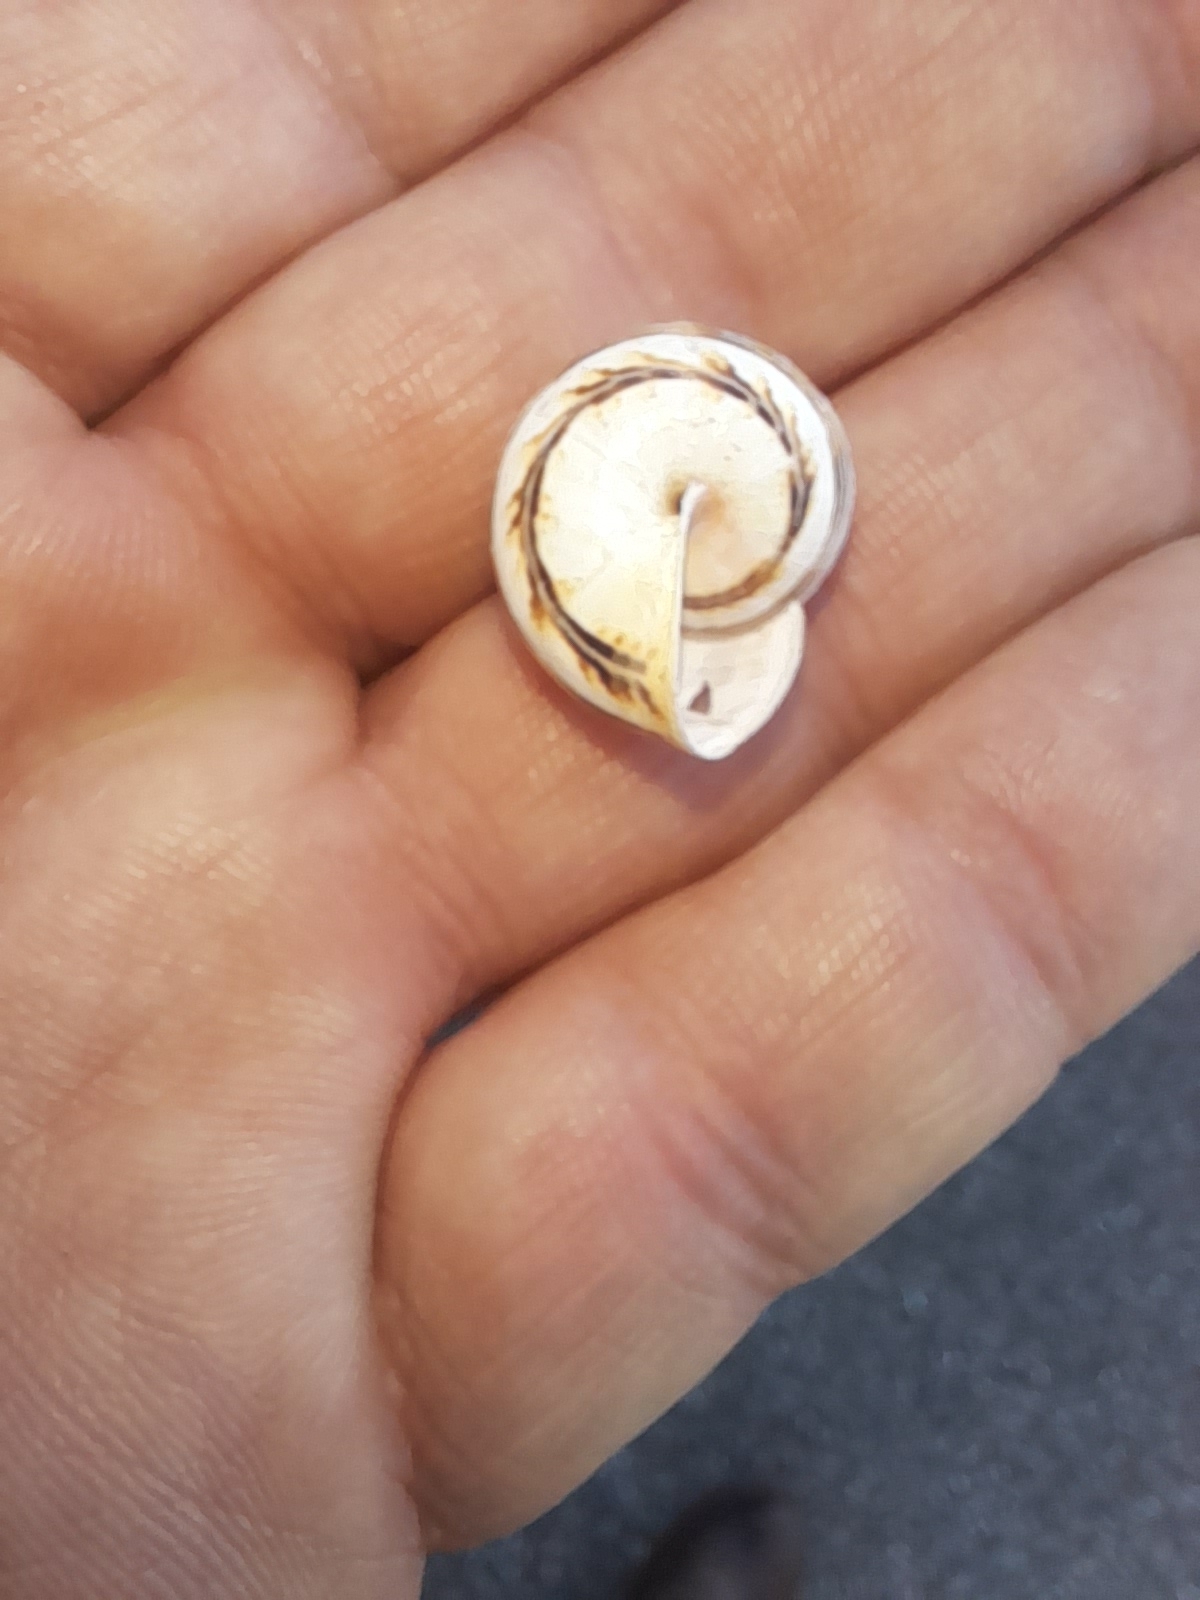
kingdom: Animalia
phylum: Mollusca
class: Gastropoda
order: Stylommatophora
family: Helicidae
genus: Theba
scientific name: Theba pisana
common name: White snail
